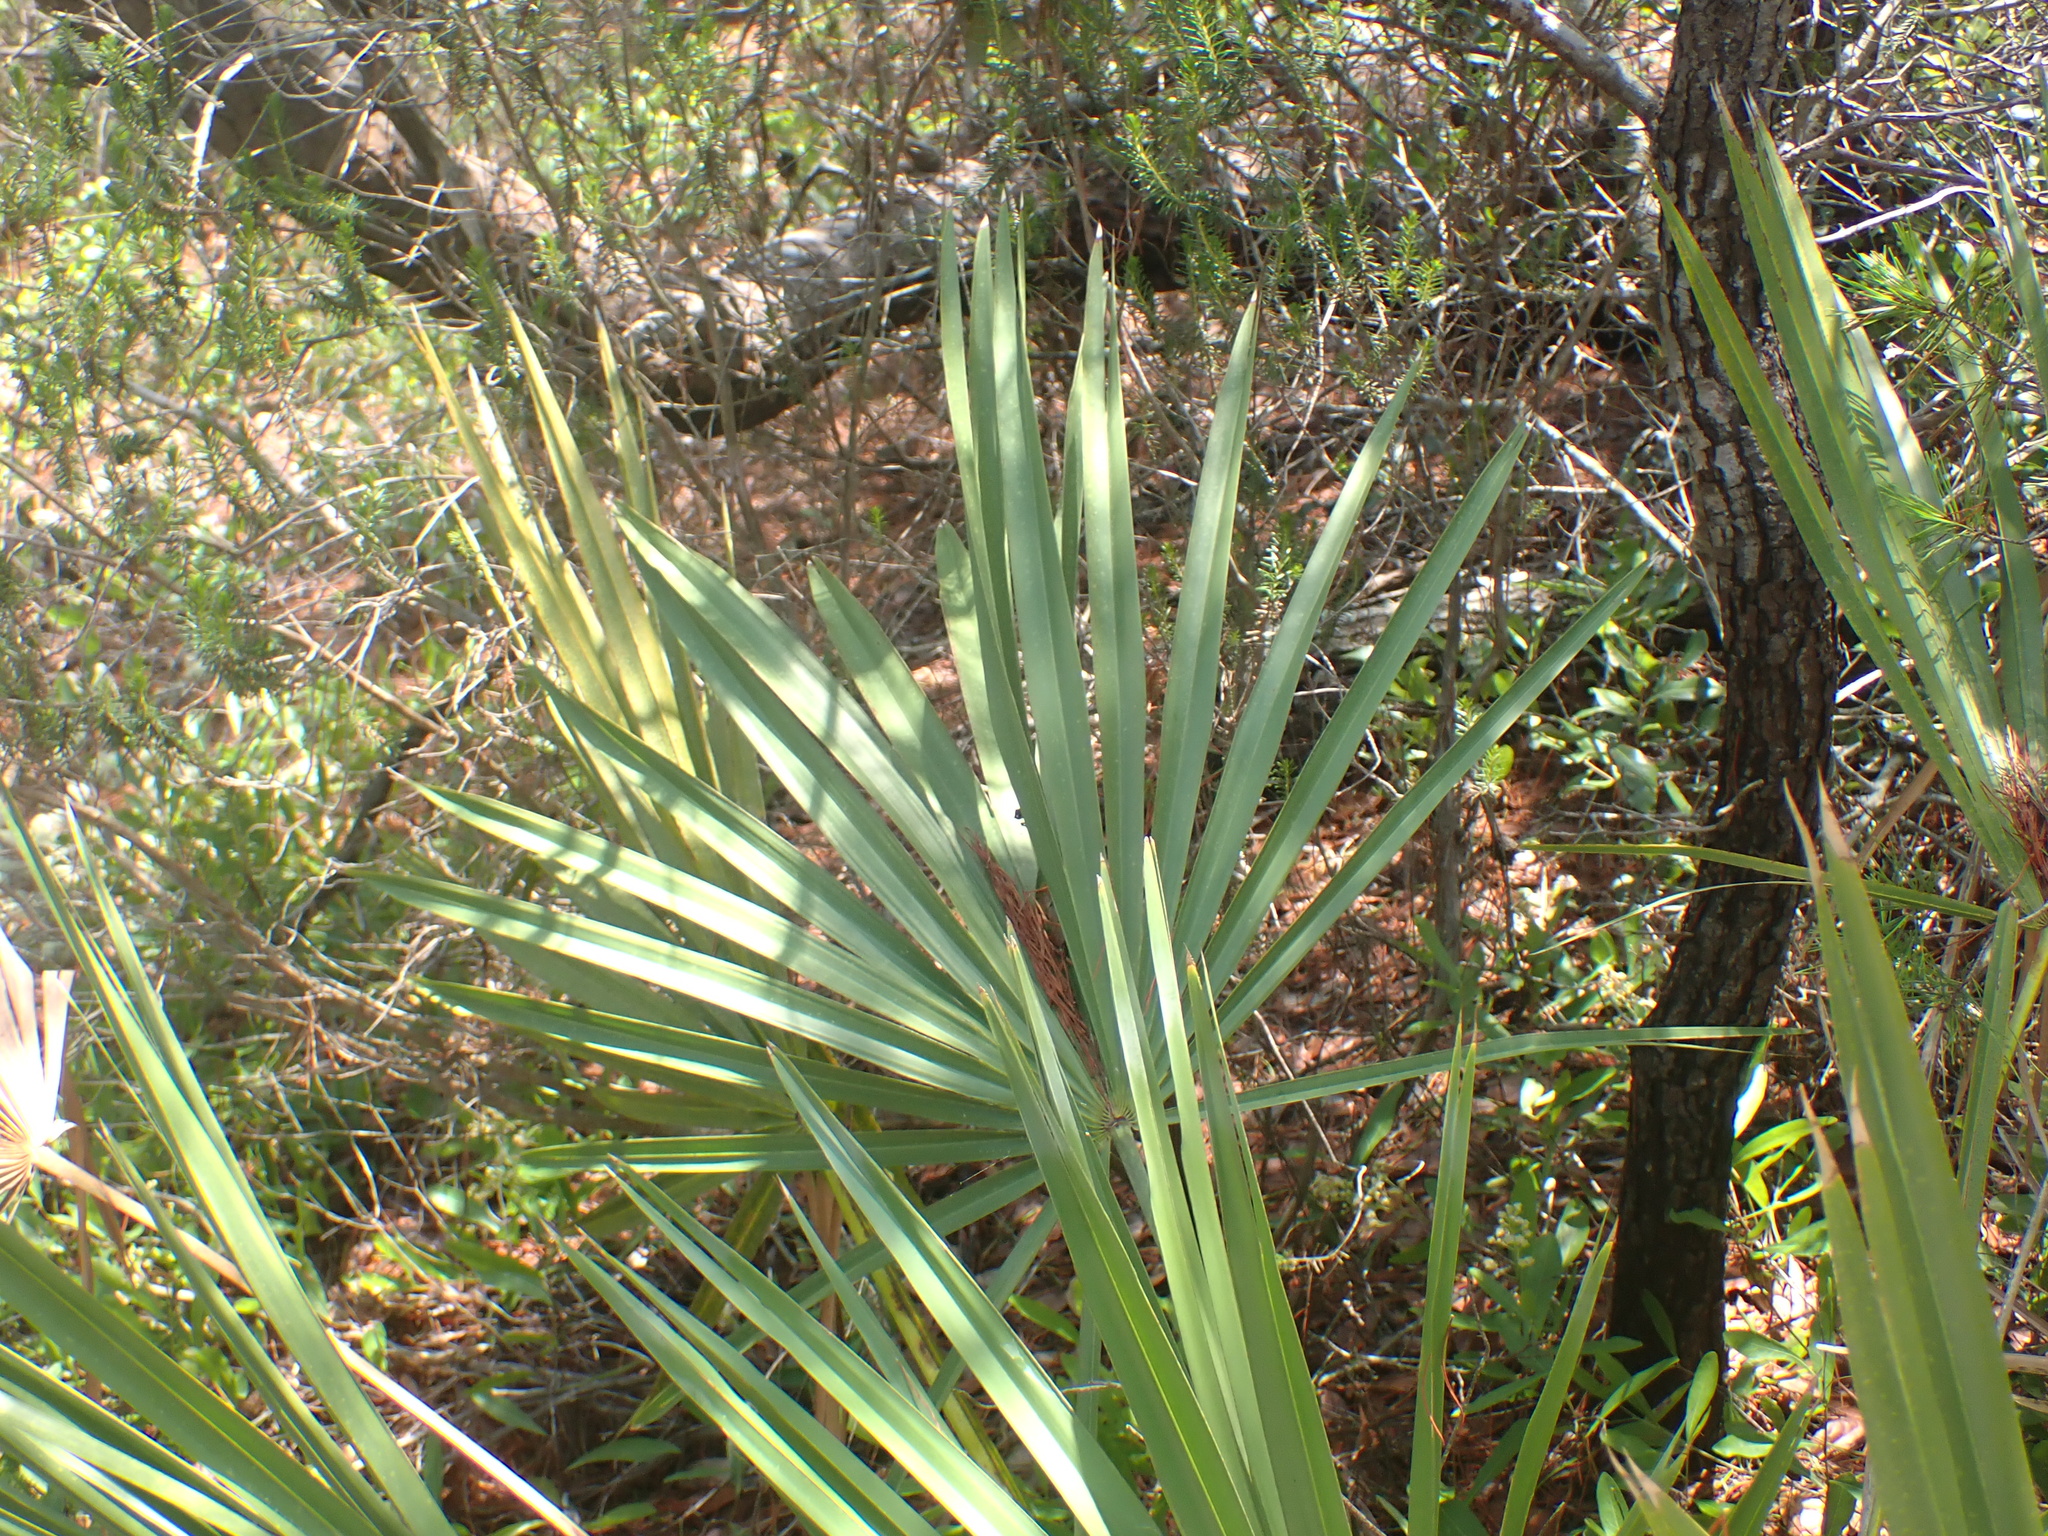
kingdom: Plantae
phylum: Tracheophyta
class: Liliopsida
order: Arecales
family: Arecaceae
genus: Serenoa
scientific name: Serenoa repens
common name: Saw-palmetto
